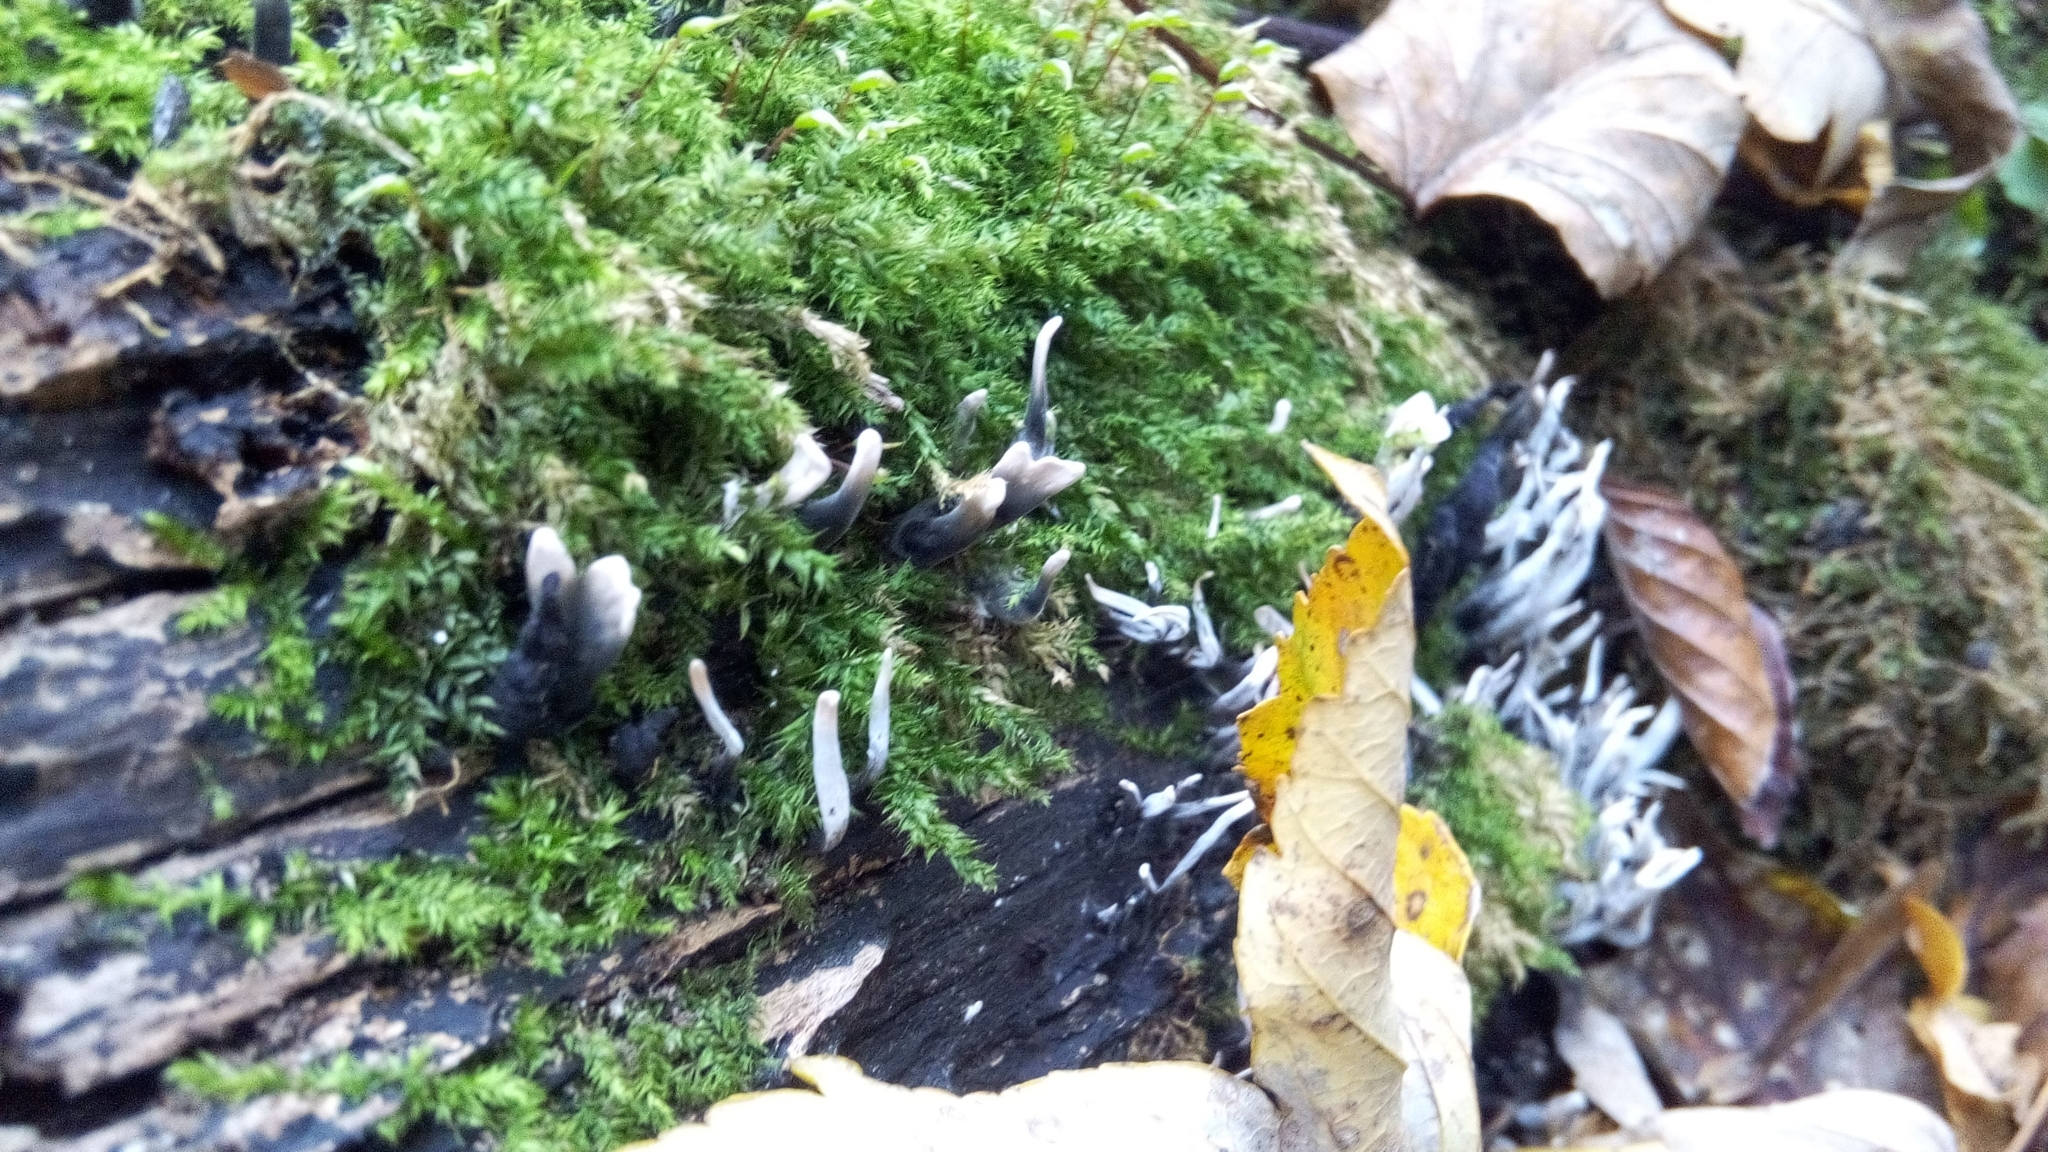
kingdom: Fungi
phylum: Ascomycota
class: Sordariomycetes
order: Xylariales
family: Xylariaceae
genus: Xylaria
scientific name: Xylaria hypoxylon
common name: Candle-snuff fungus
